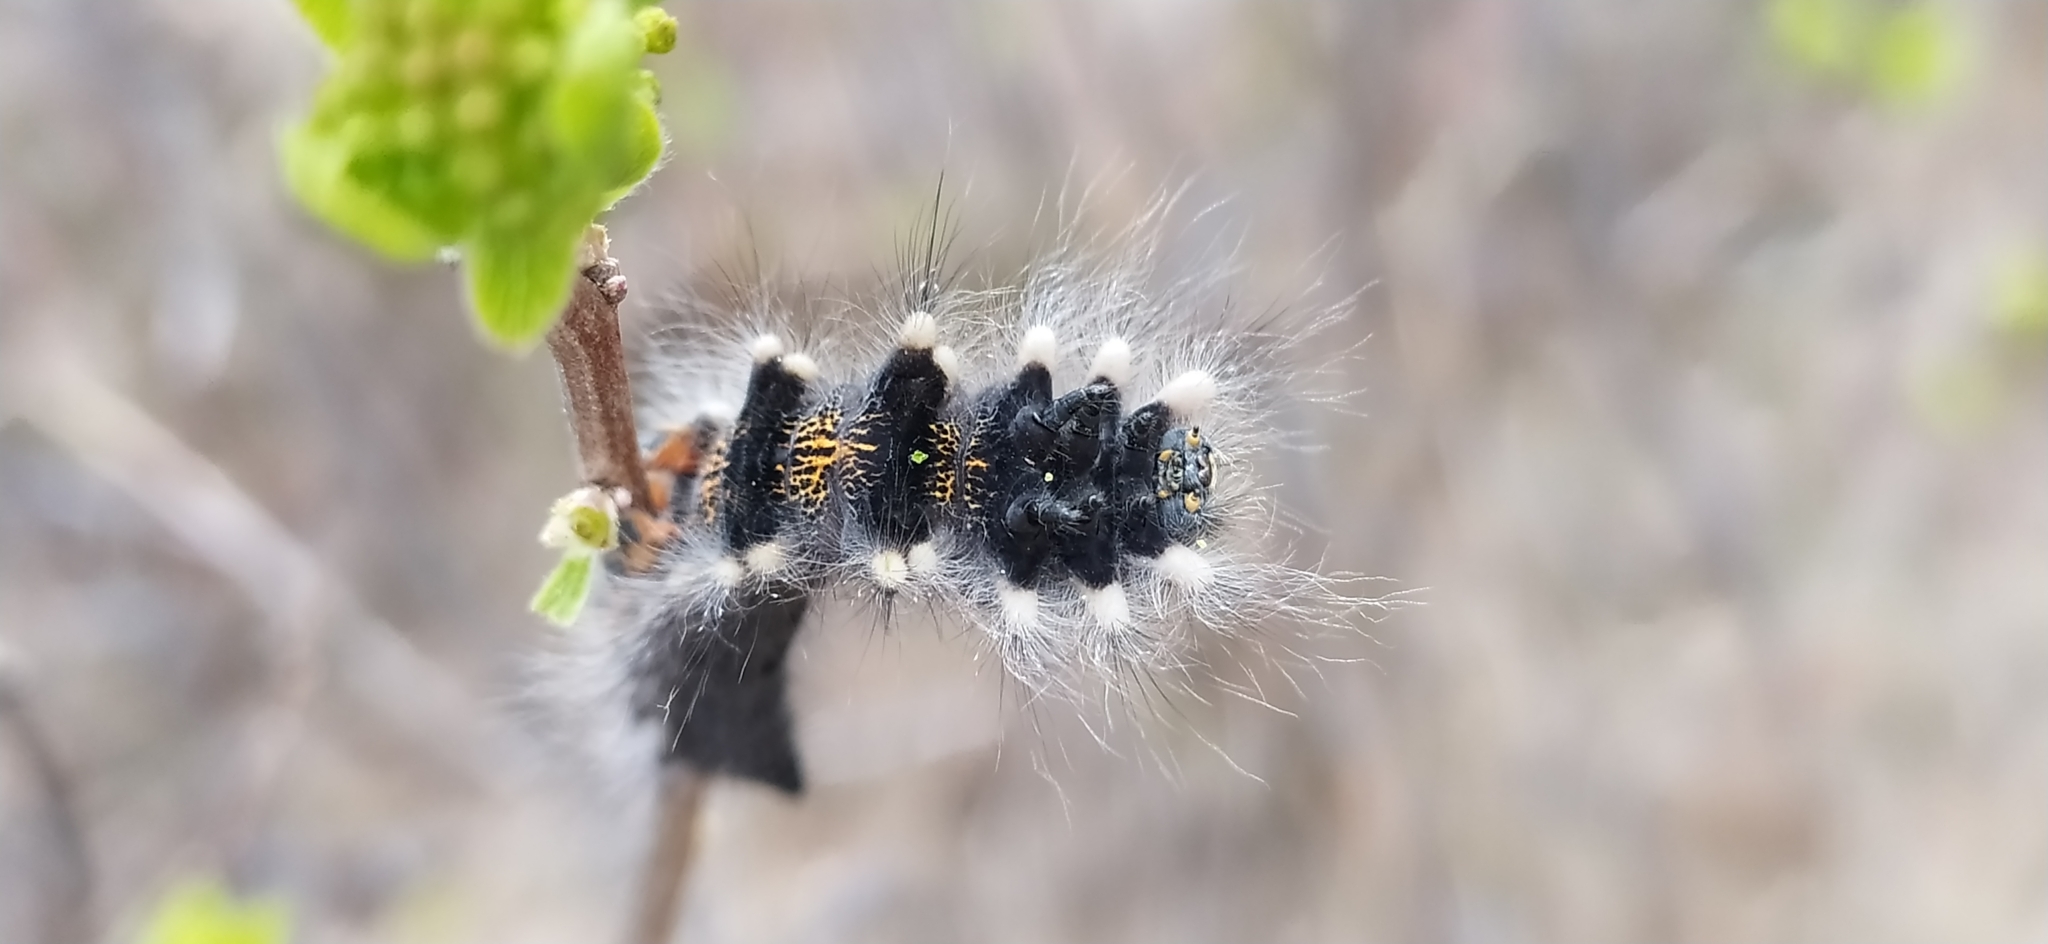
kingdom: Animalia
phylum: Arthropoda
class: Insecta
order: Lepidoptera
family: Lasiocampidae
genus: Gastropacha
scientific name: Gastropacha quercifolia
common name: Lappet
